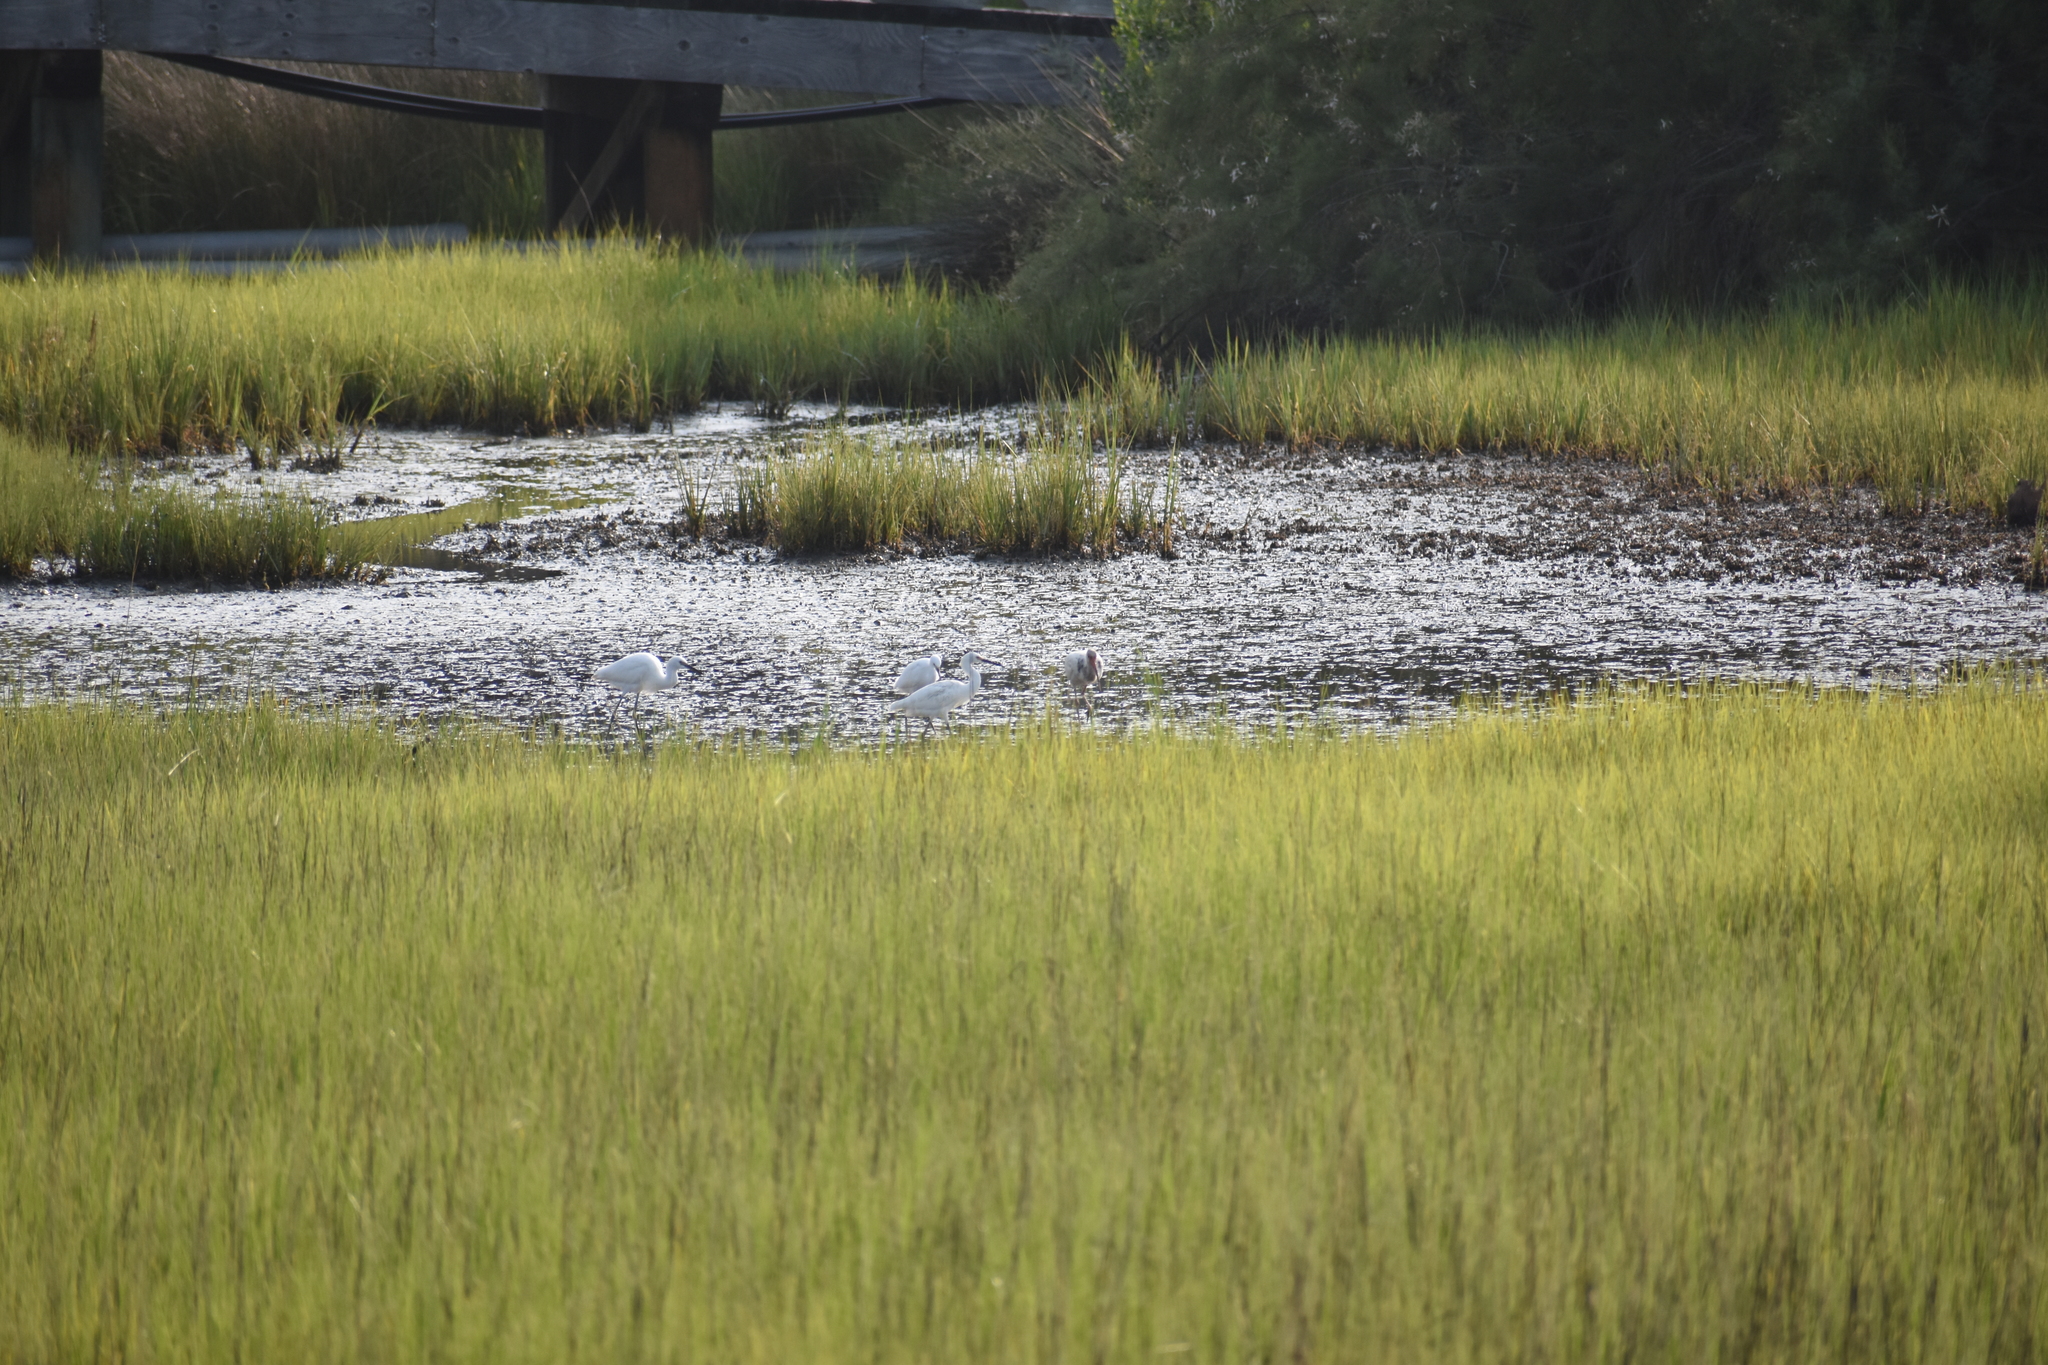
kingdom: Animalia
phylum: Chordata
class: Aves
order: Pelecaniformes
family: Ardeidae
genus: Egretta
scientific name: Egretta thula
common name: Snowy egret
